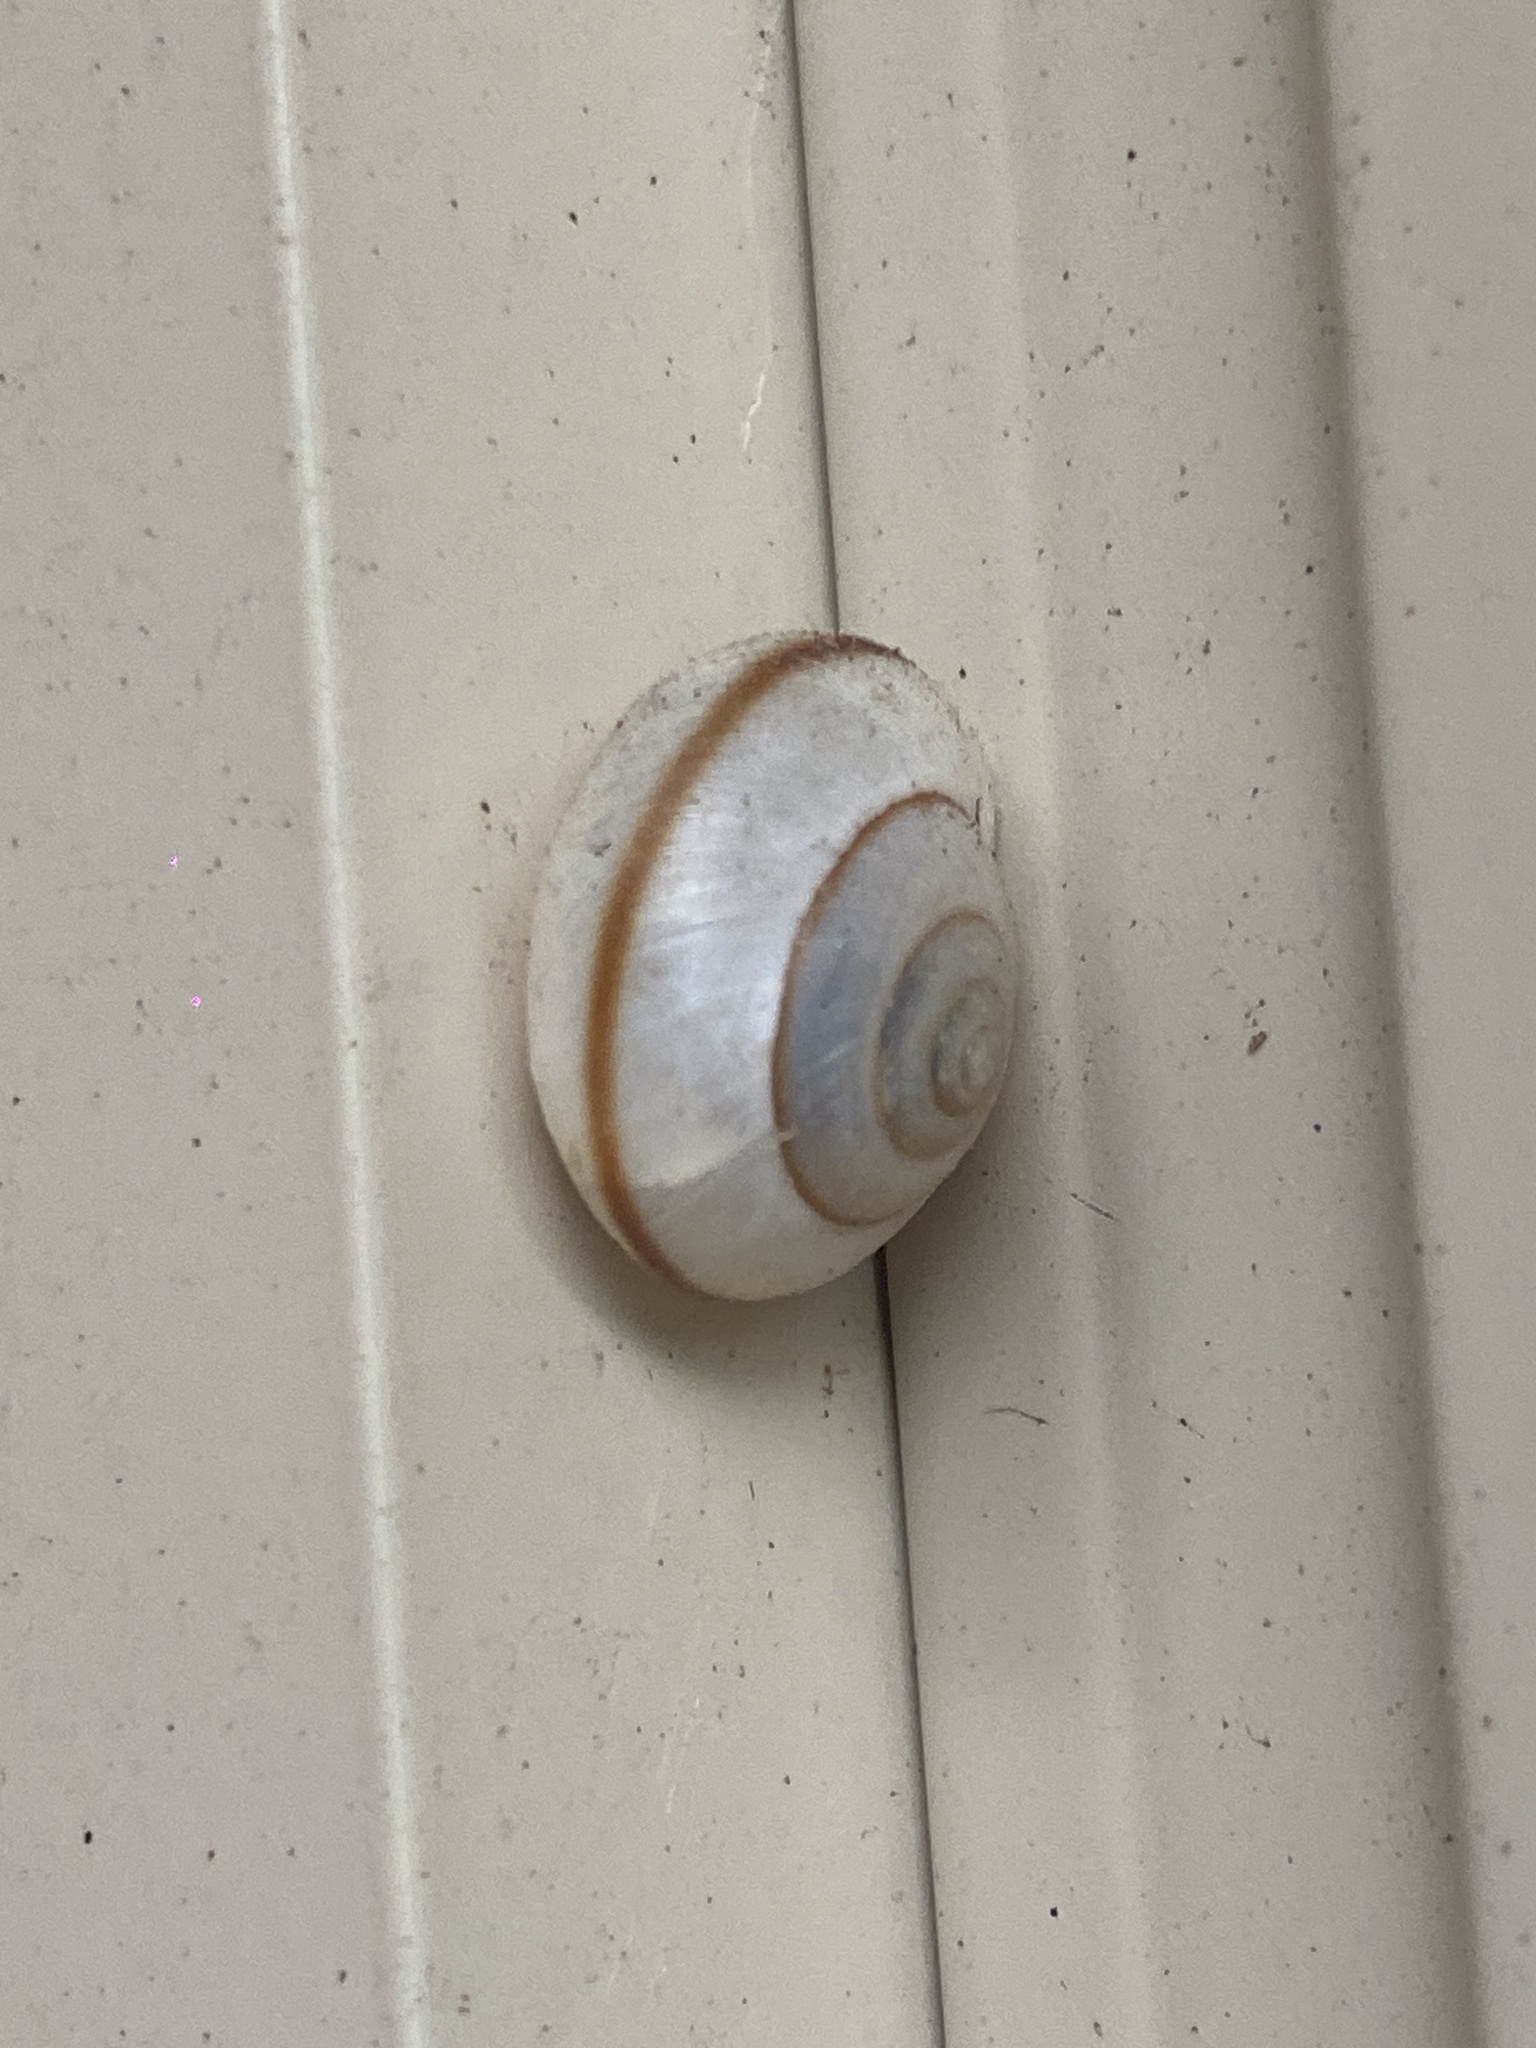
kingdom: Animalia
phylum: Mollusca
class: Gastropoda
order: Stylommatophora
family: Camaenidae
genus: Bradybaena
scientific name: Bradybaena similaris
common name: Asian trampsnail
